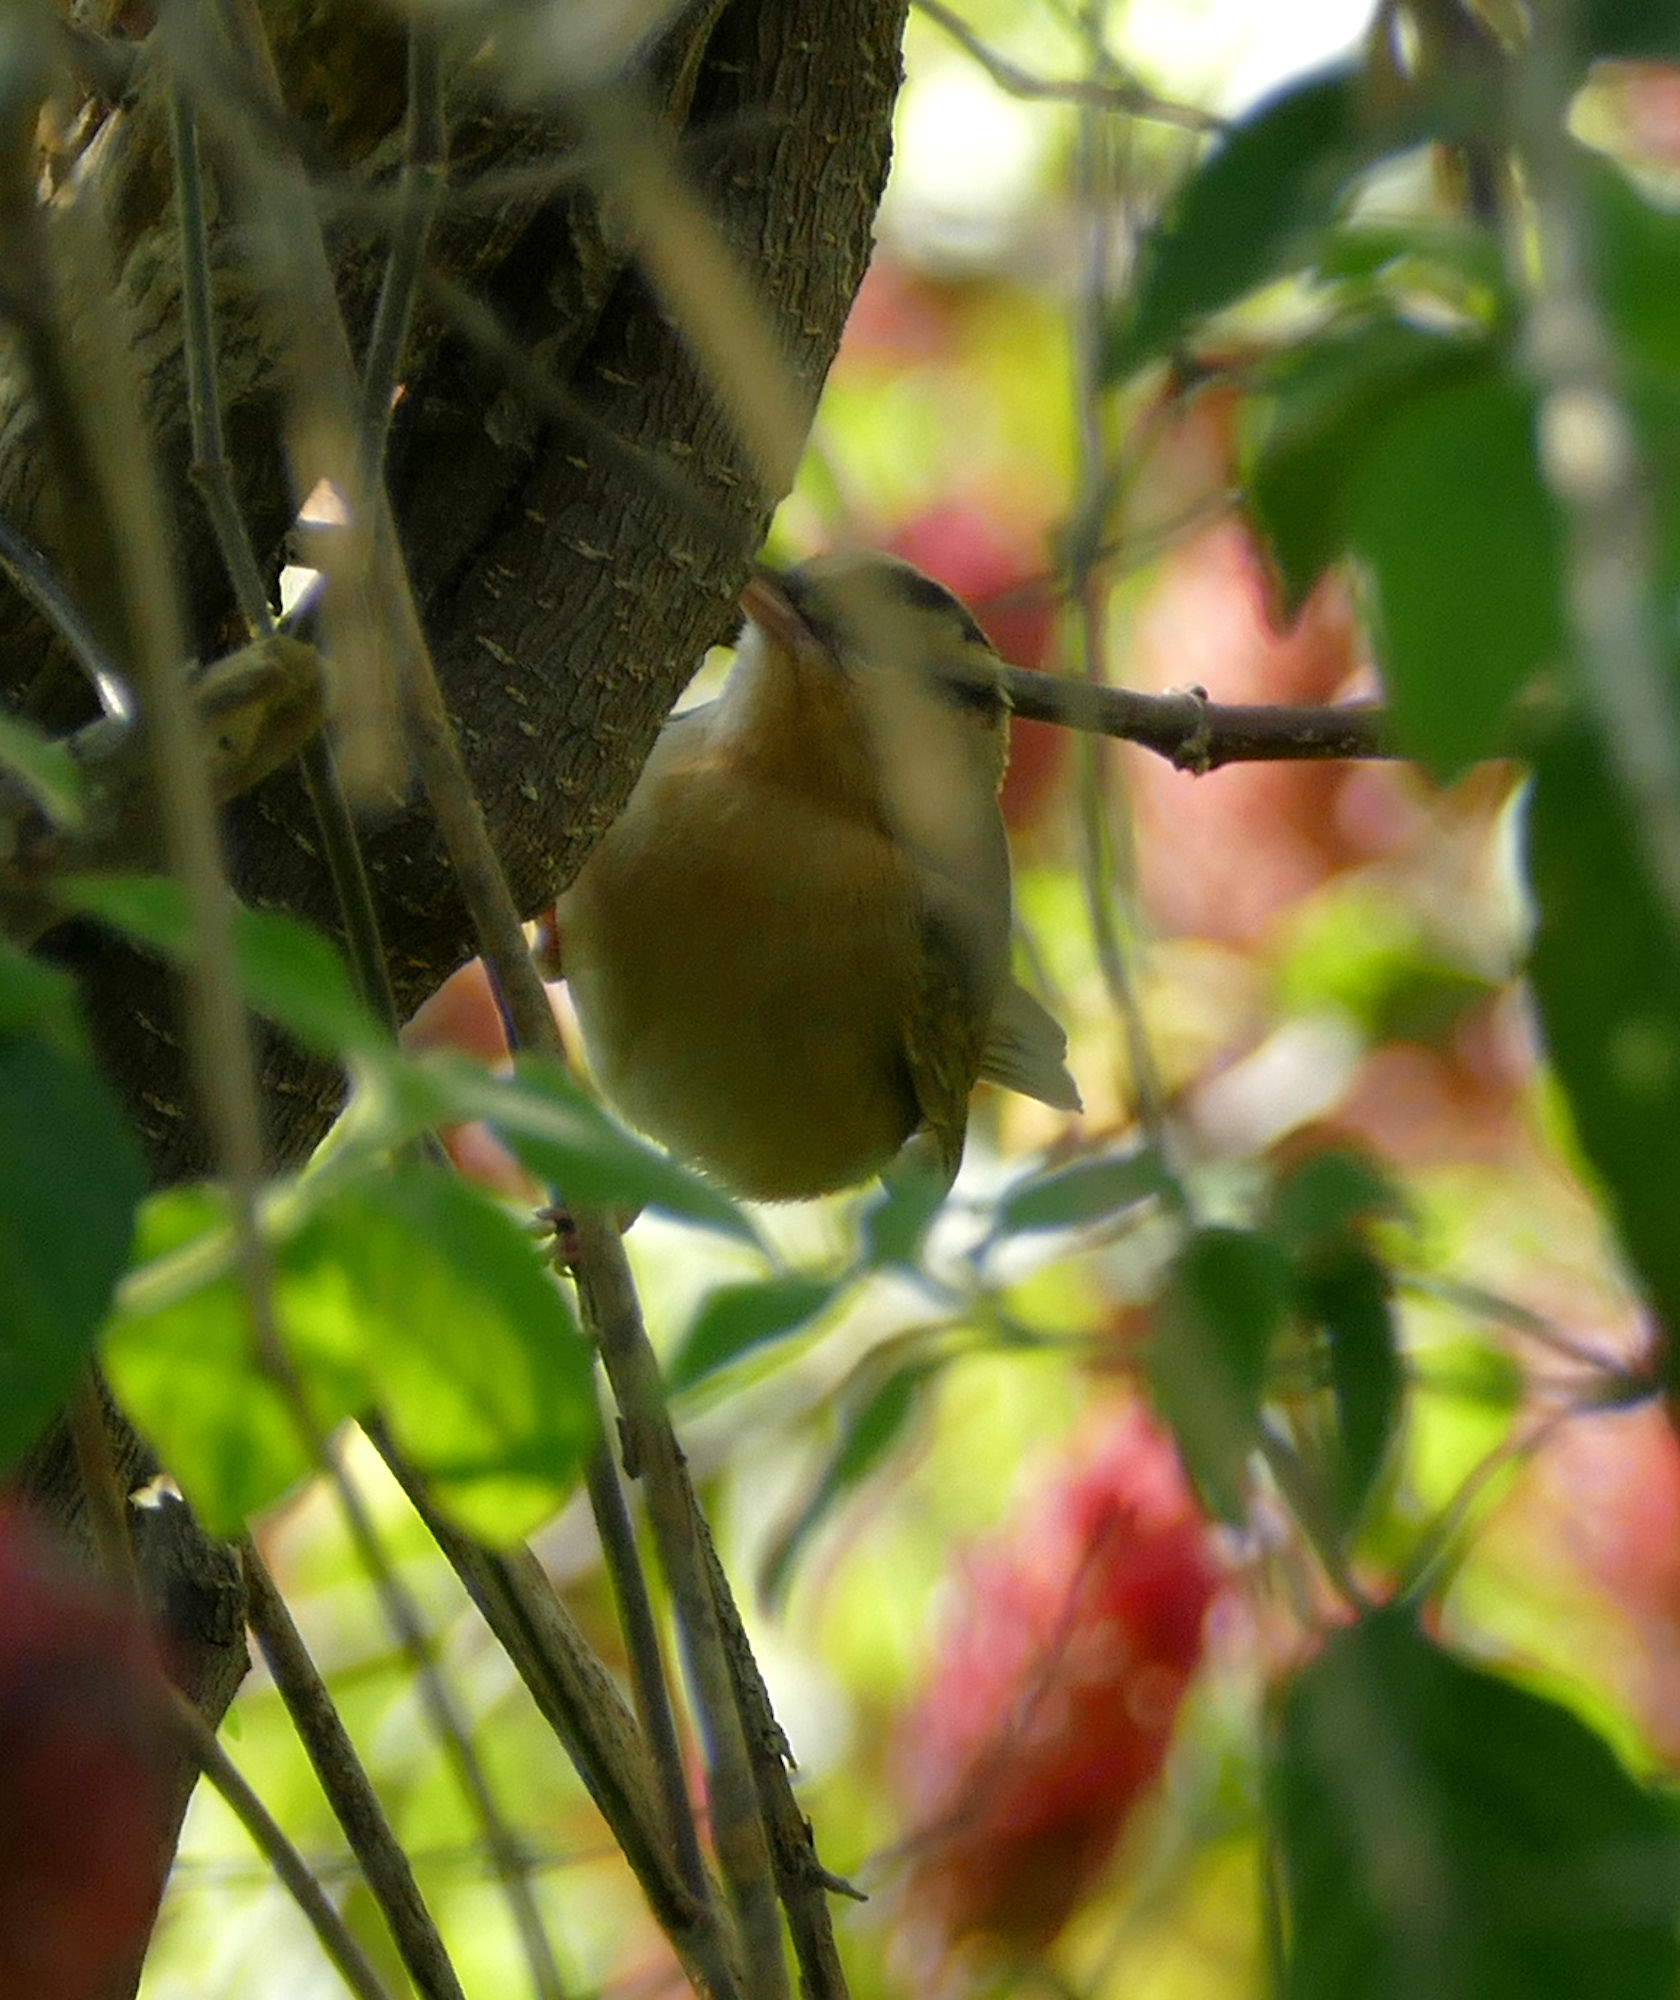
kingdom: Animalia
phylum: Chordata
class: Aves
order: Passeriformes
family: Parulidae
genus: Helmitheros
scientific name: Helmitheros vermivorum
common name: Worm-eating warbler
